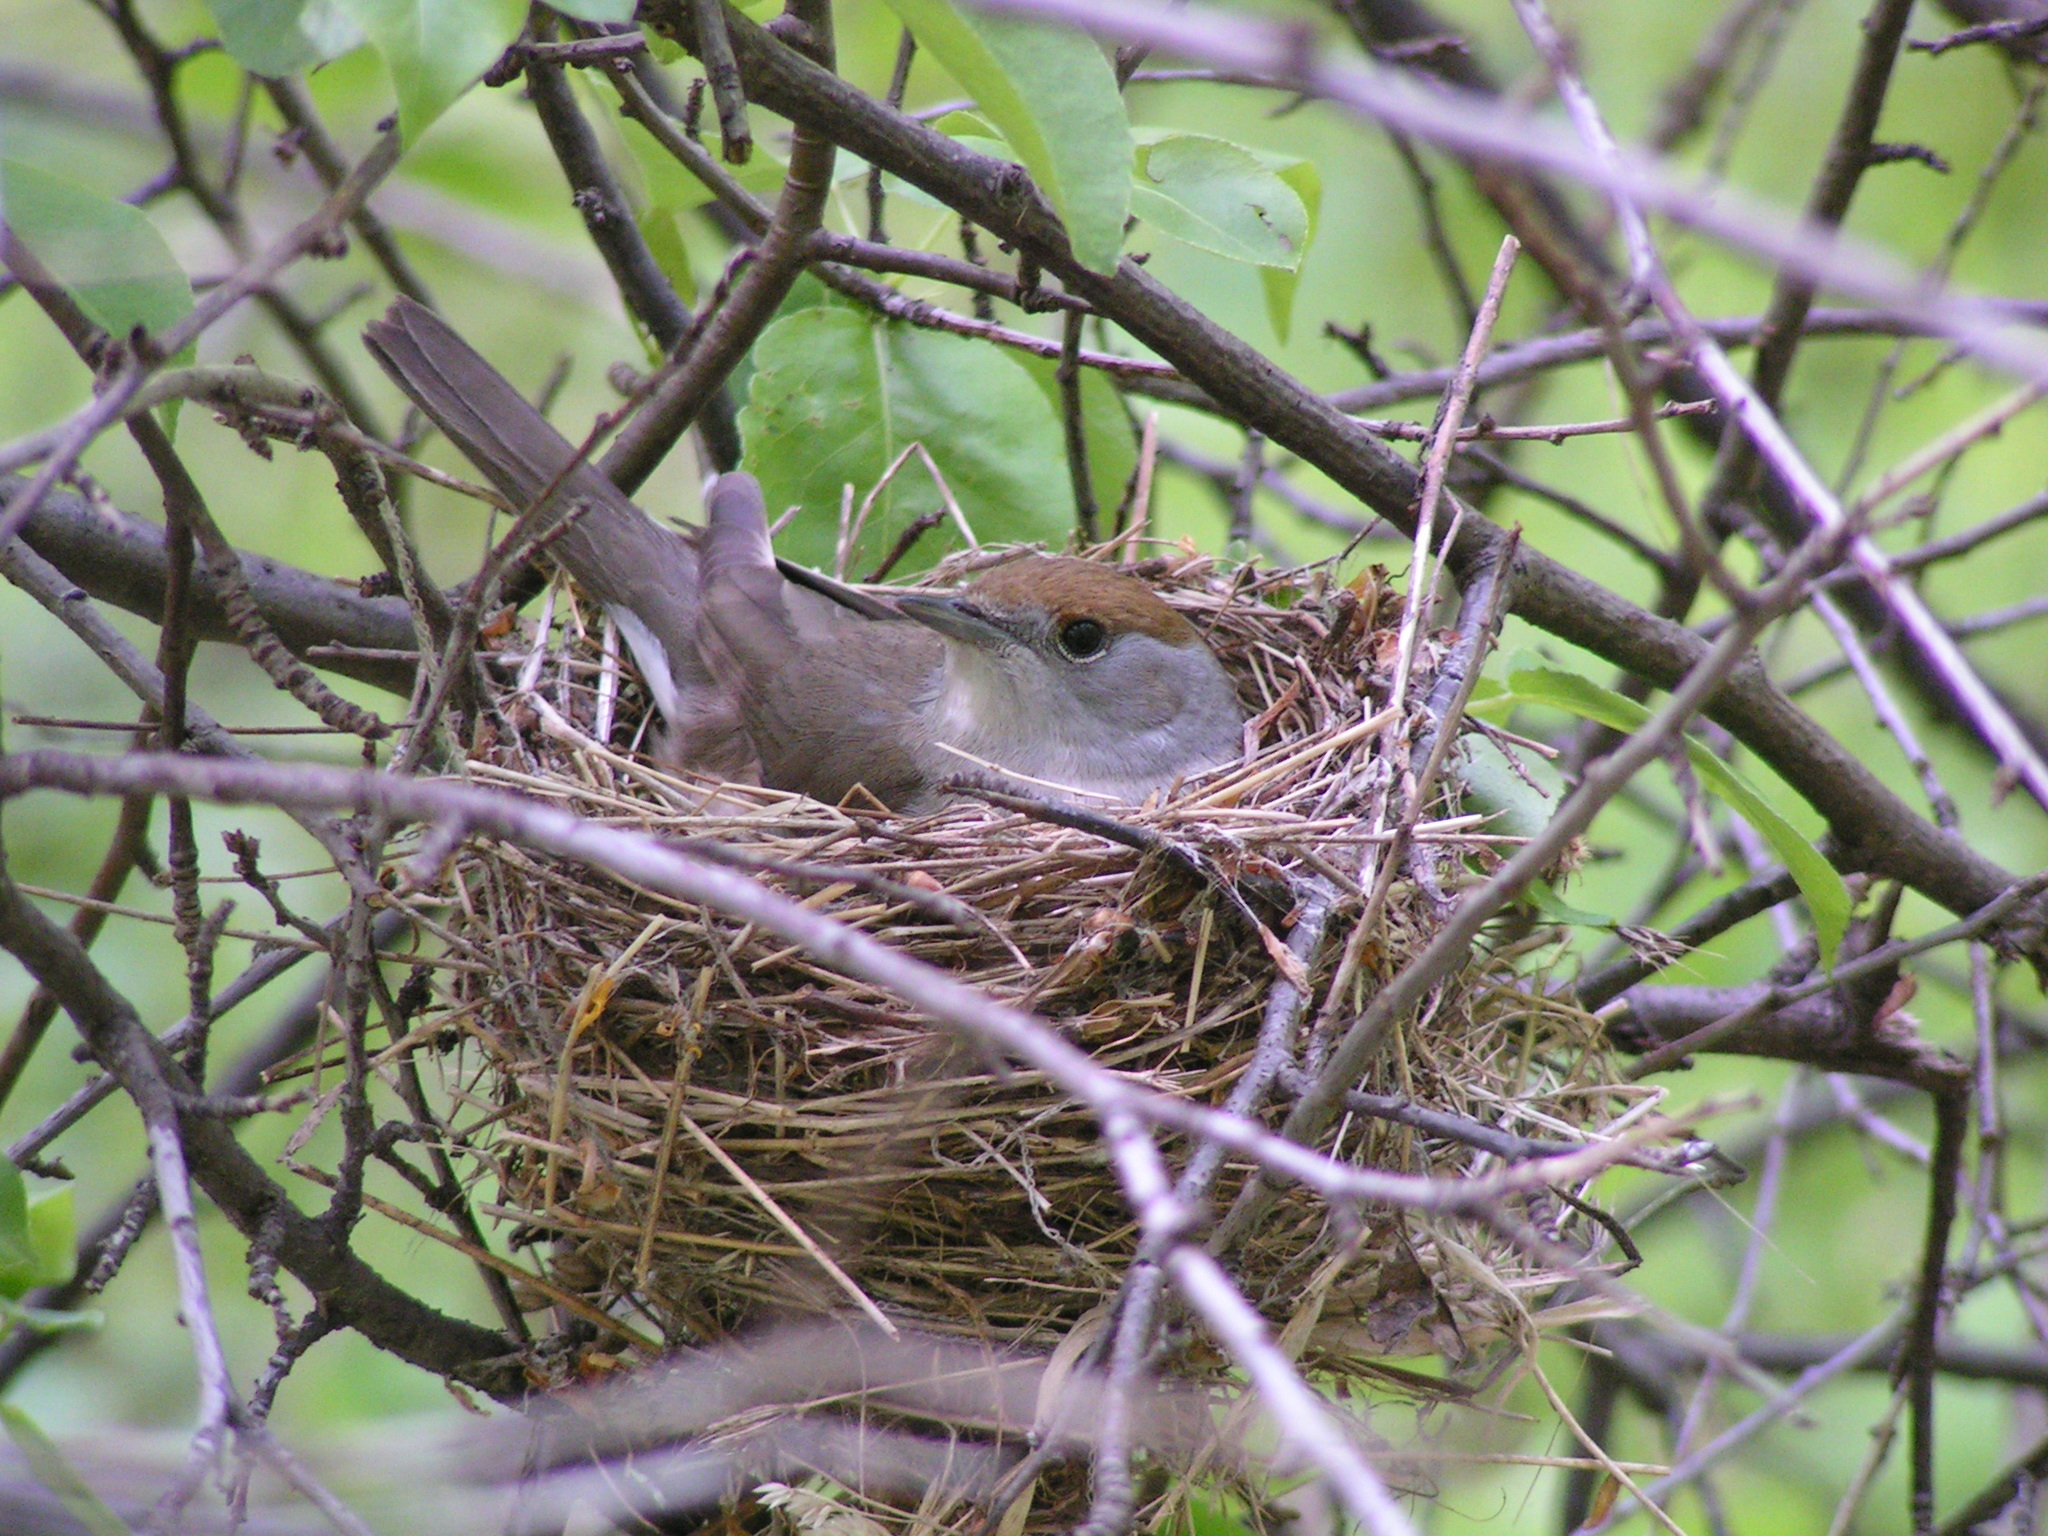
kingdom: Animalia
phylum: Chordata
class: Aves
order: Passeriformes
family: Sylviidae
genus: Sylvia
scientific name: Sylvia atricapilla
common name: Eurasian blackcap
